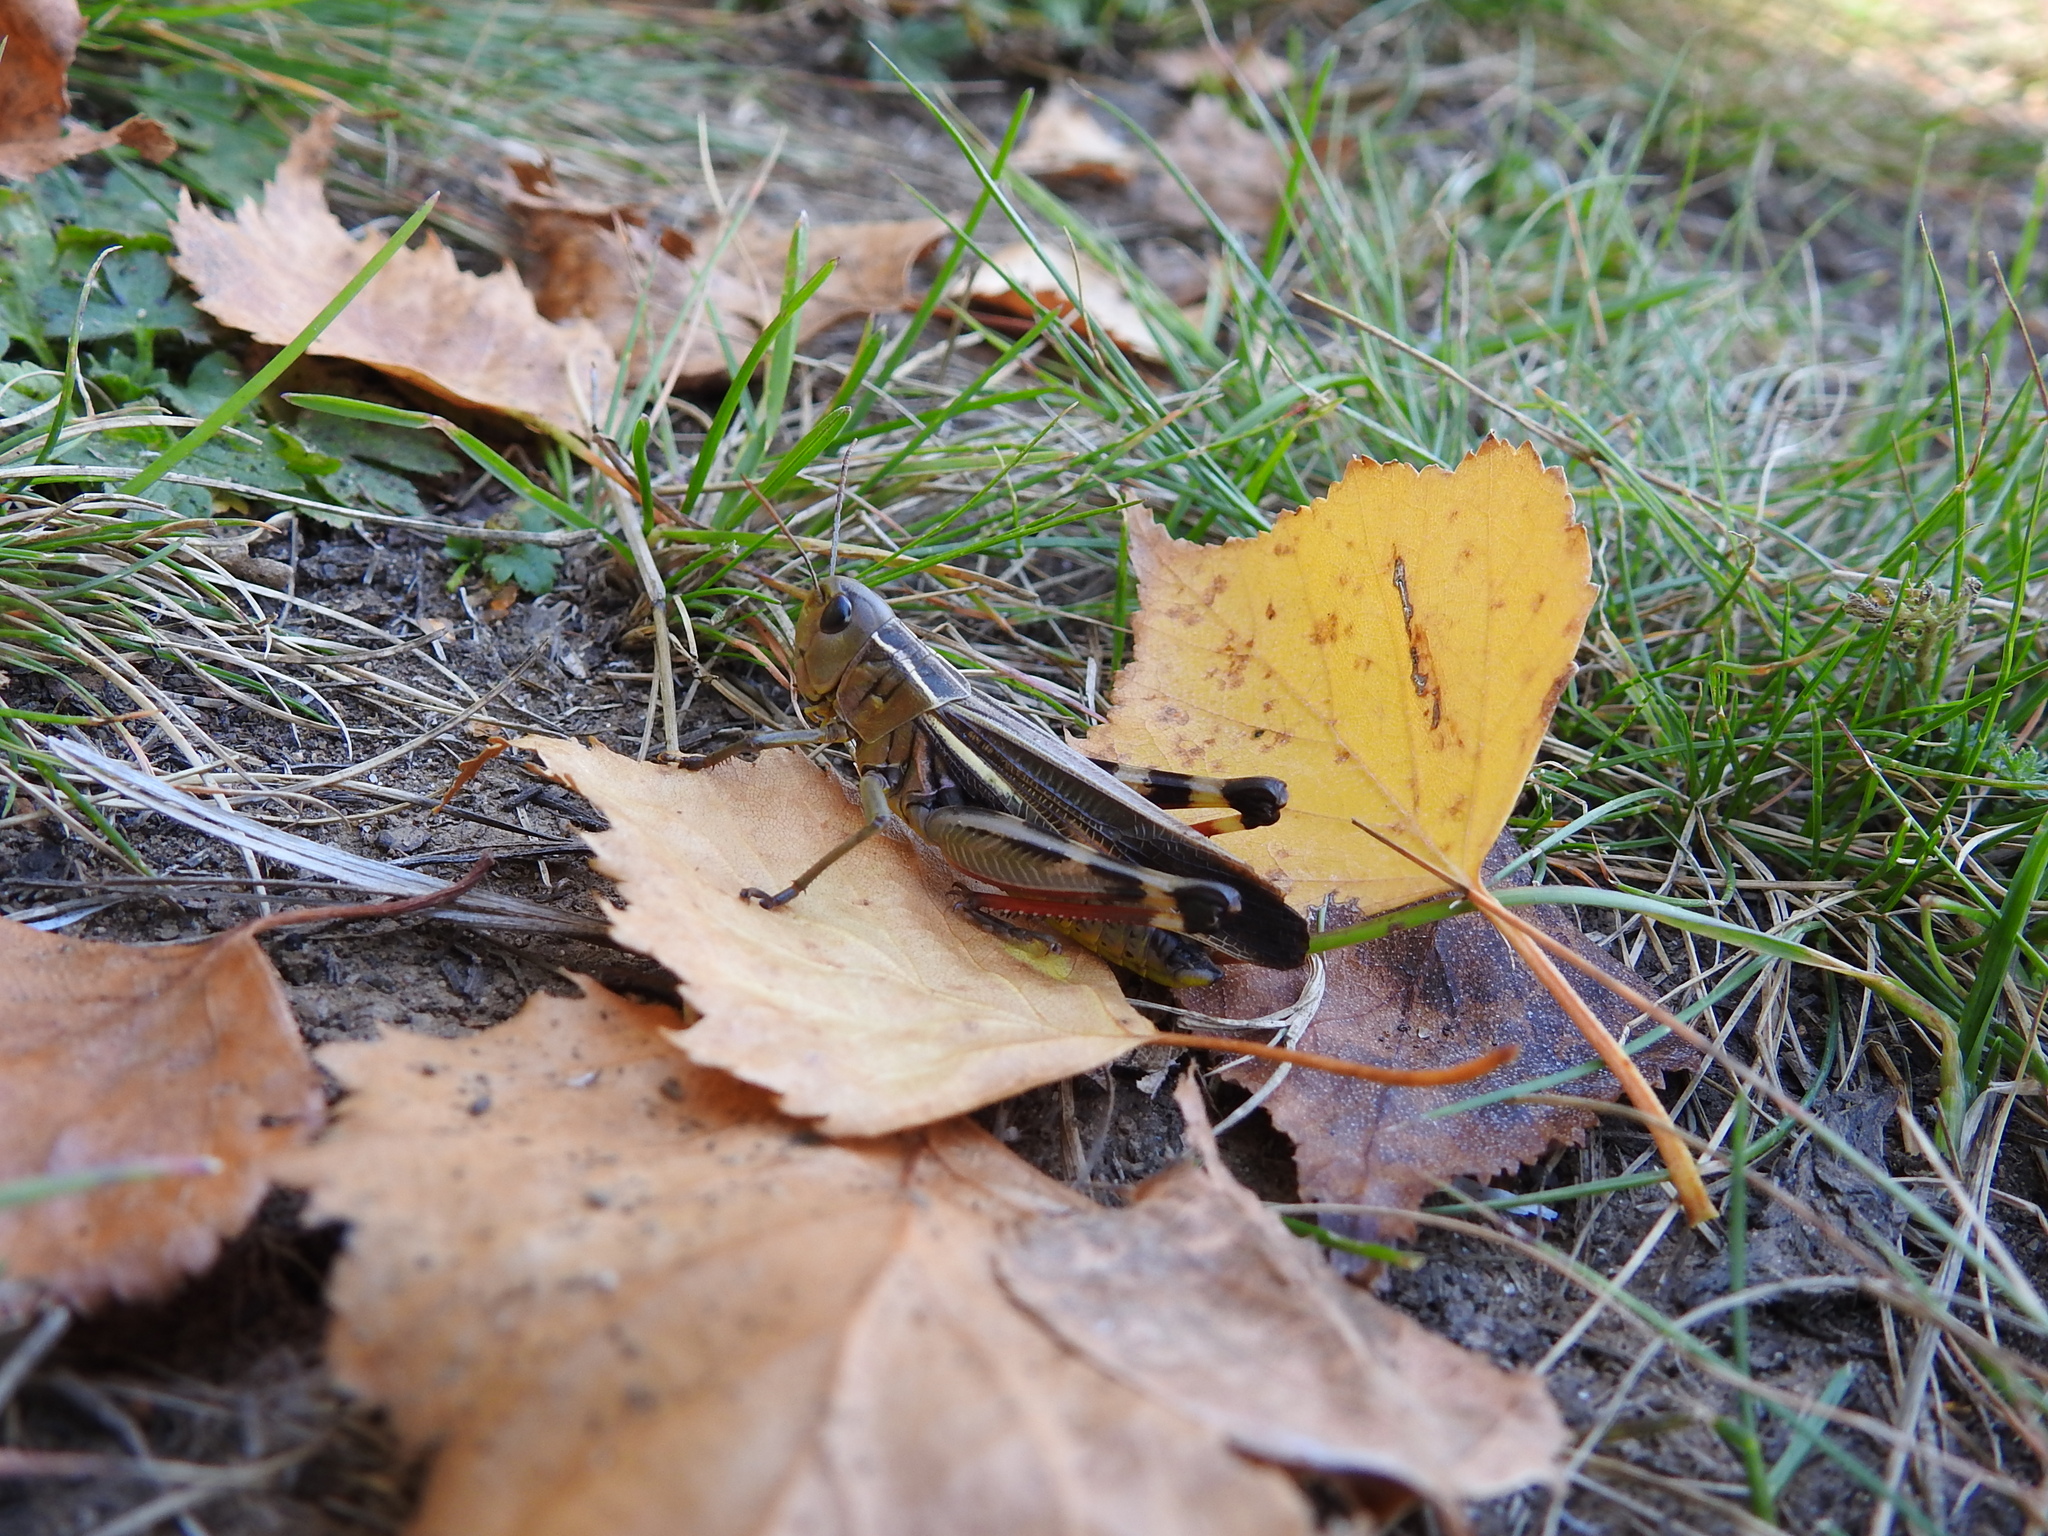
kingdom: Animalia
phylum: Arthropoda
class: Insecta
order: Orthoptera
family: Acrididae
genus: Arcyptera
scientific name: Arcyptera fusca
